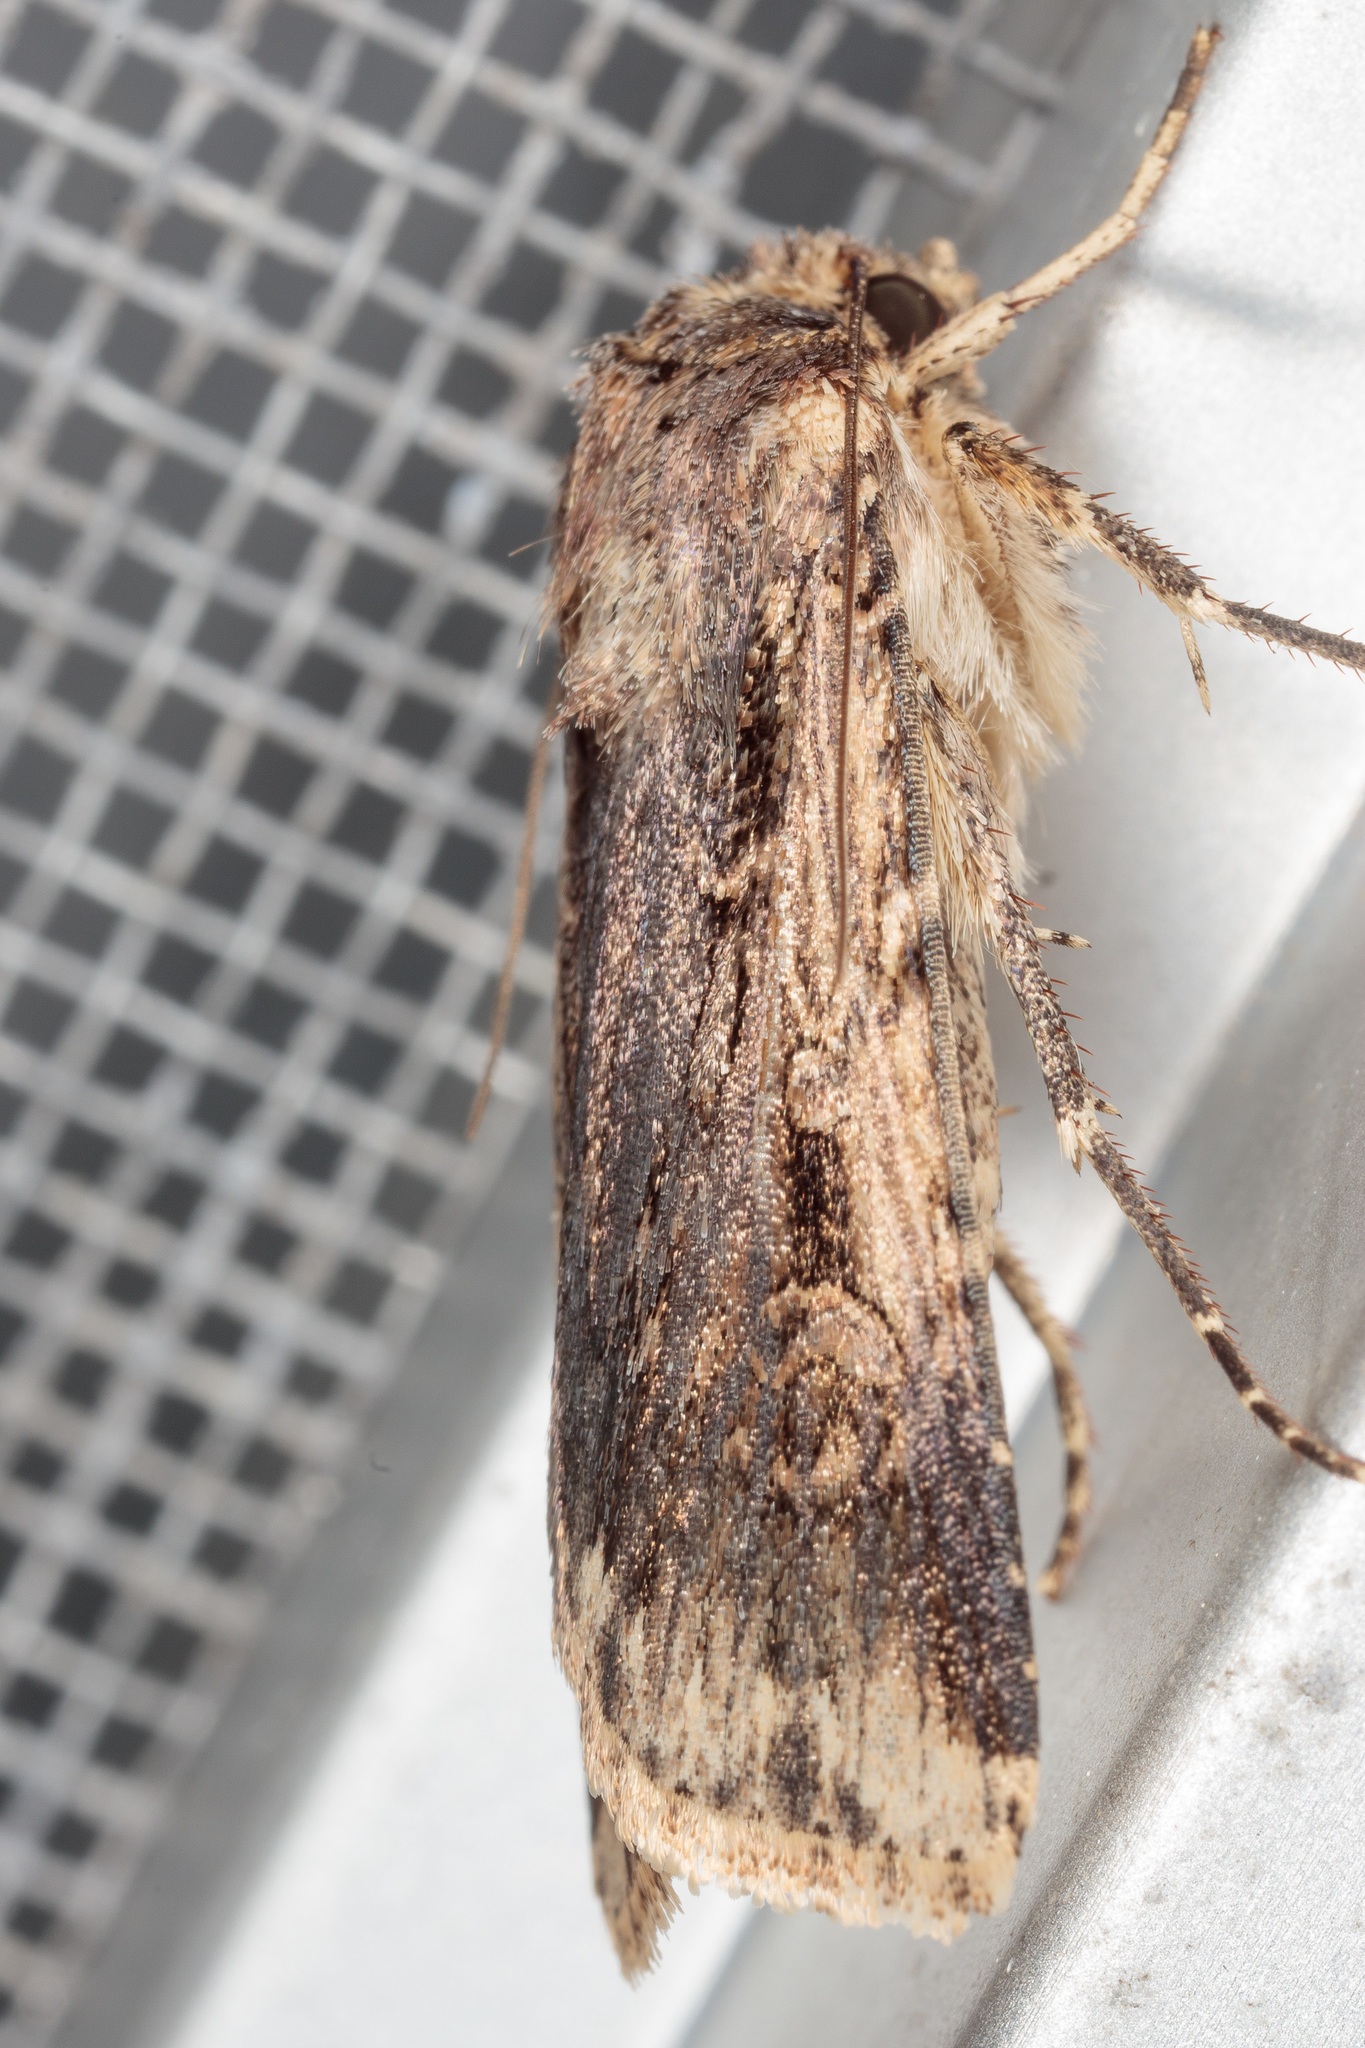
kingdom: Animalia
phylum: Arthropoda
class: Insecta
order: Lepidoptera
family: Noctuidae
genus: Feltia
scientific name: Feltia subterranea
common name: Granulate cutworm
